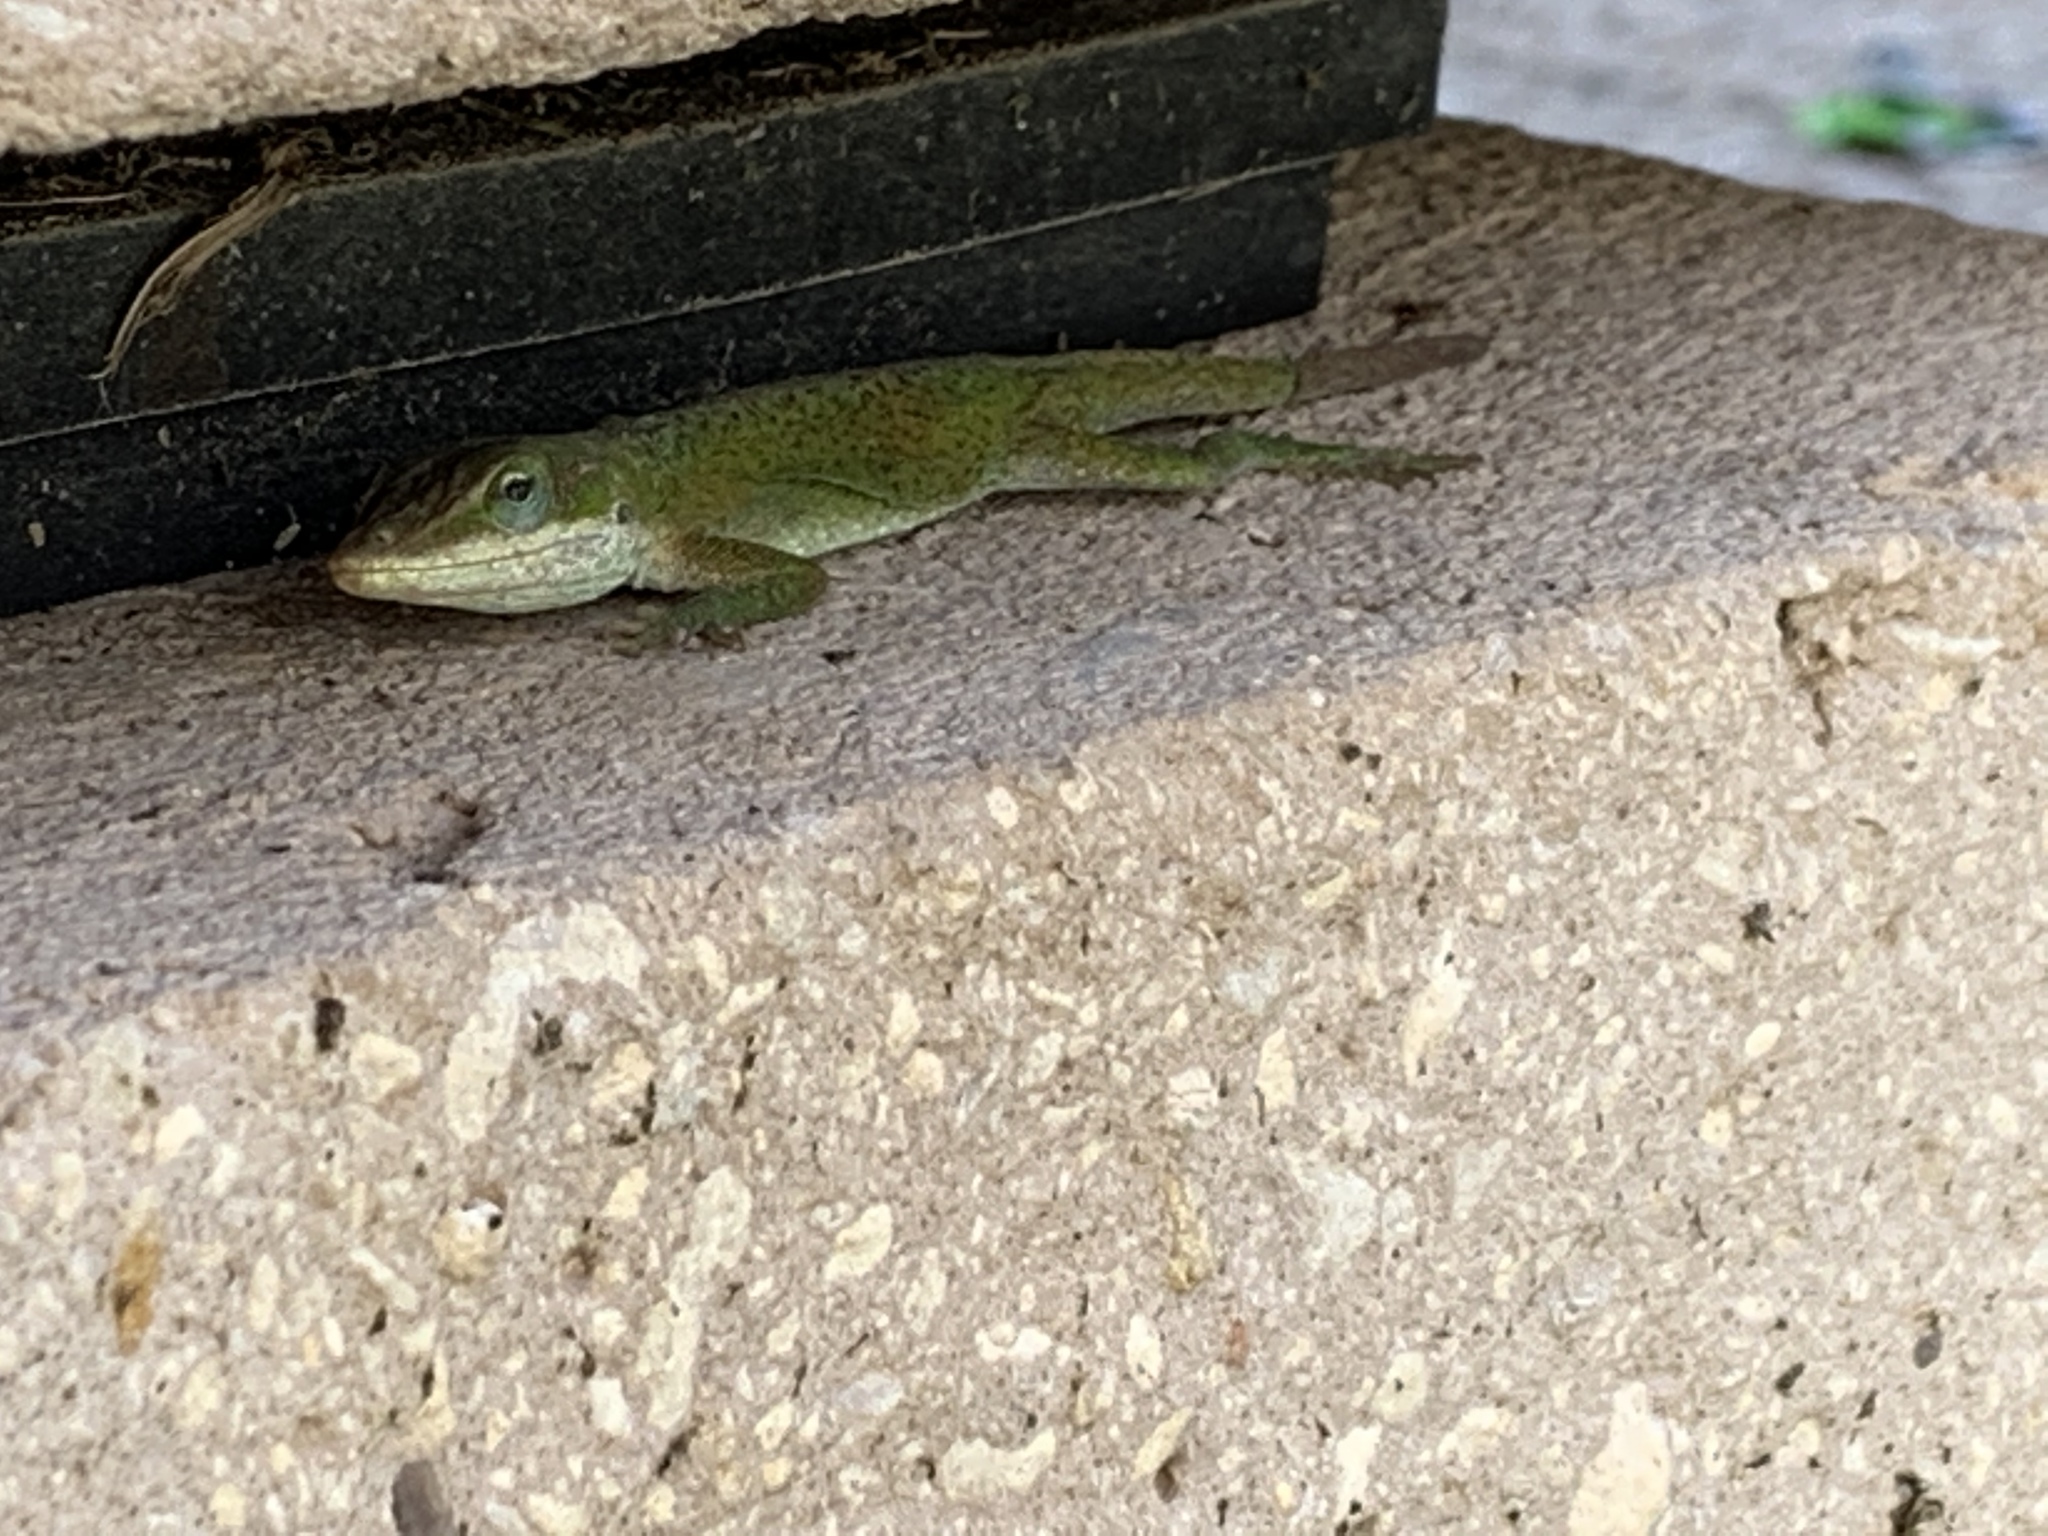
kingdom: Animalia
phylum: Chordata
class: Squamata
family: Dactyloidae
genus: Anolis
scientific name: Anolis carolinensis
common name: Green anole
